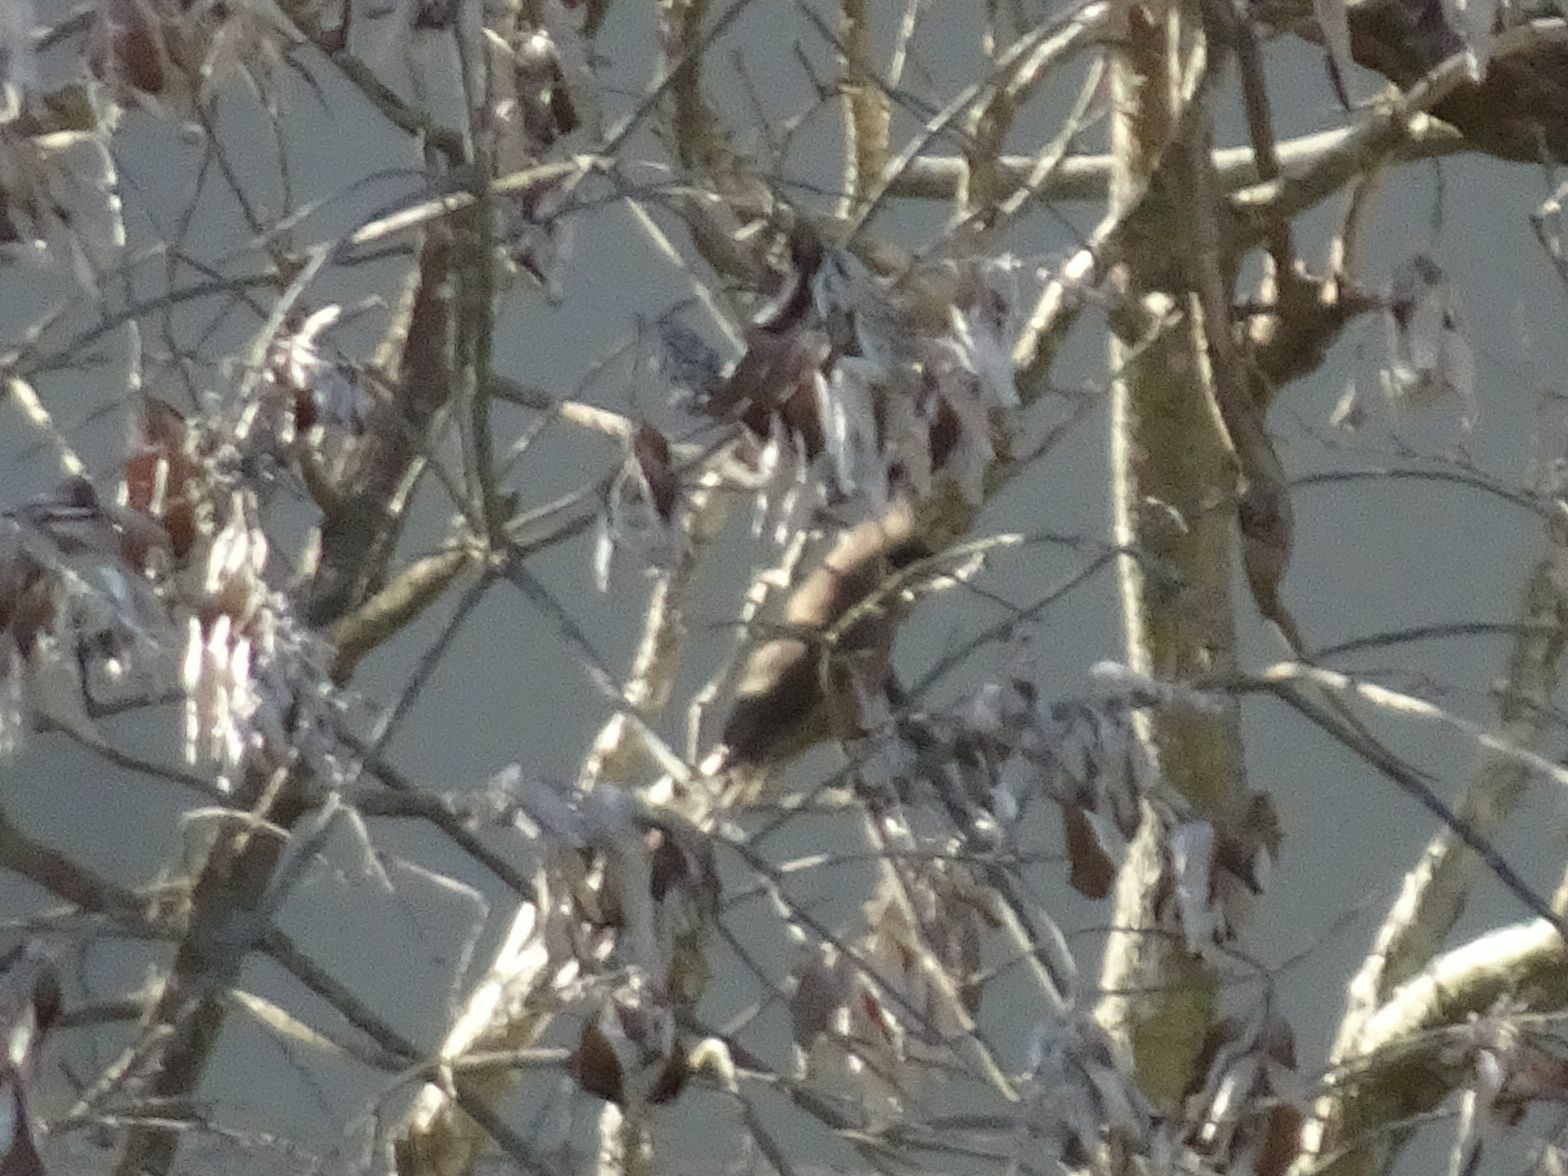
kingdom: Animalia
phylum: Chordata
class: Aves
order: Coliiformes
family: Coliidae
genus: Colius
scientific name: Colius striatus
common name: Speckled mousebird
